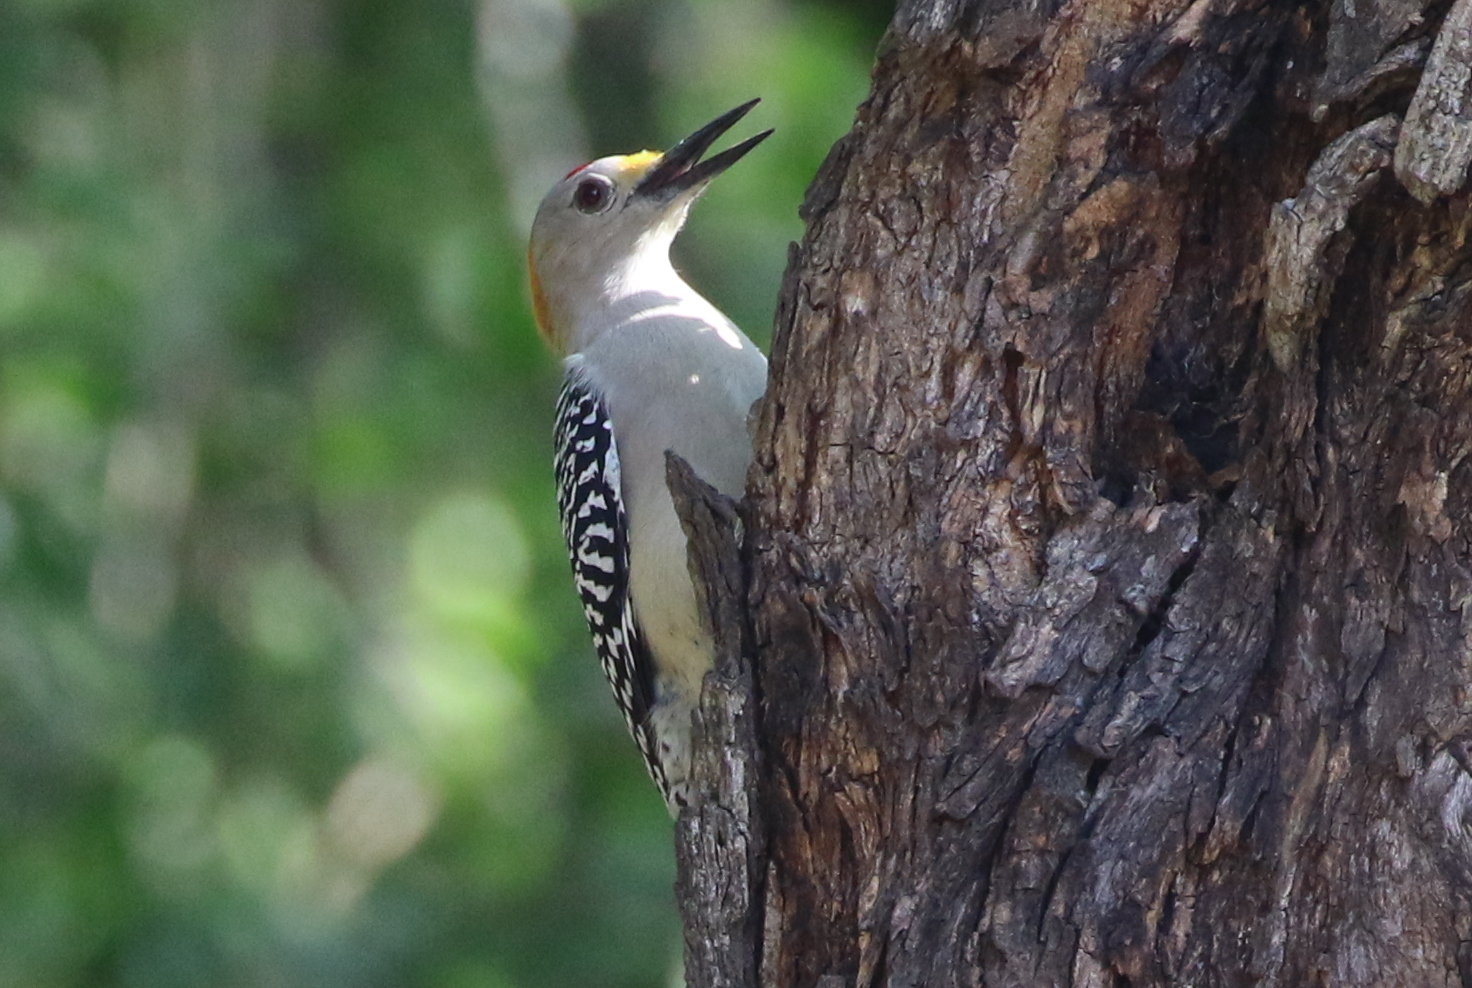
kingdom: Animalia
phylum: Chordata
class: Aves
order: Piciformes
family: Picidae
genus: Melanerpes
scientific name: Melanerpes aurifrons
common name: Golden-fronted woodpecker
